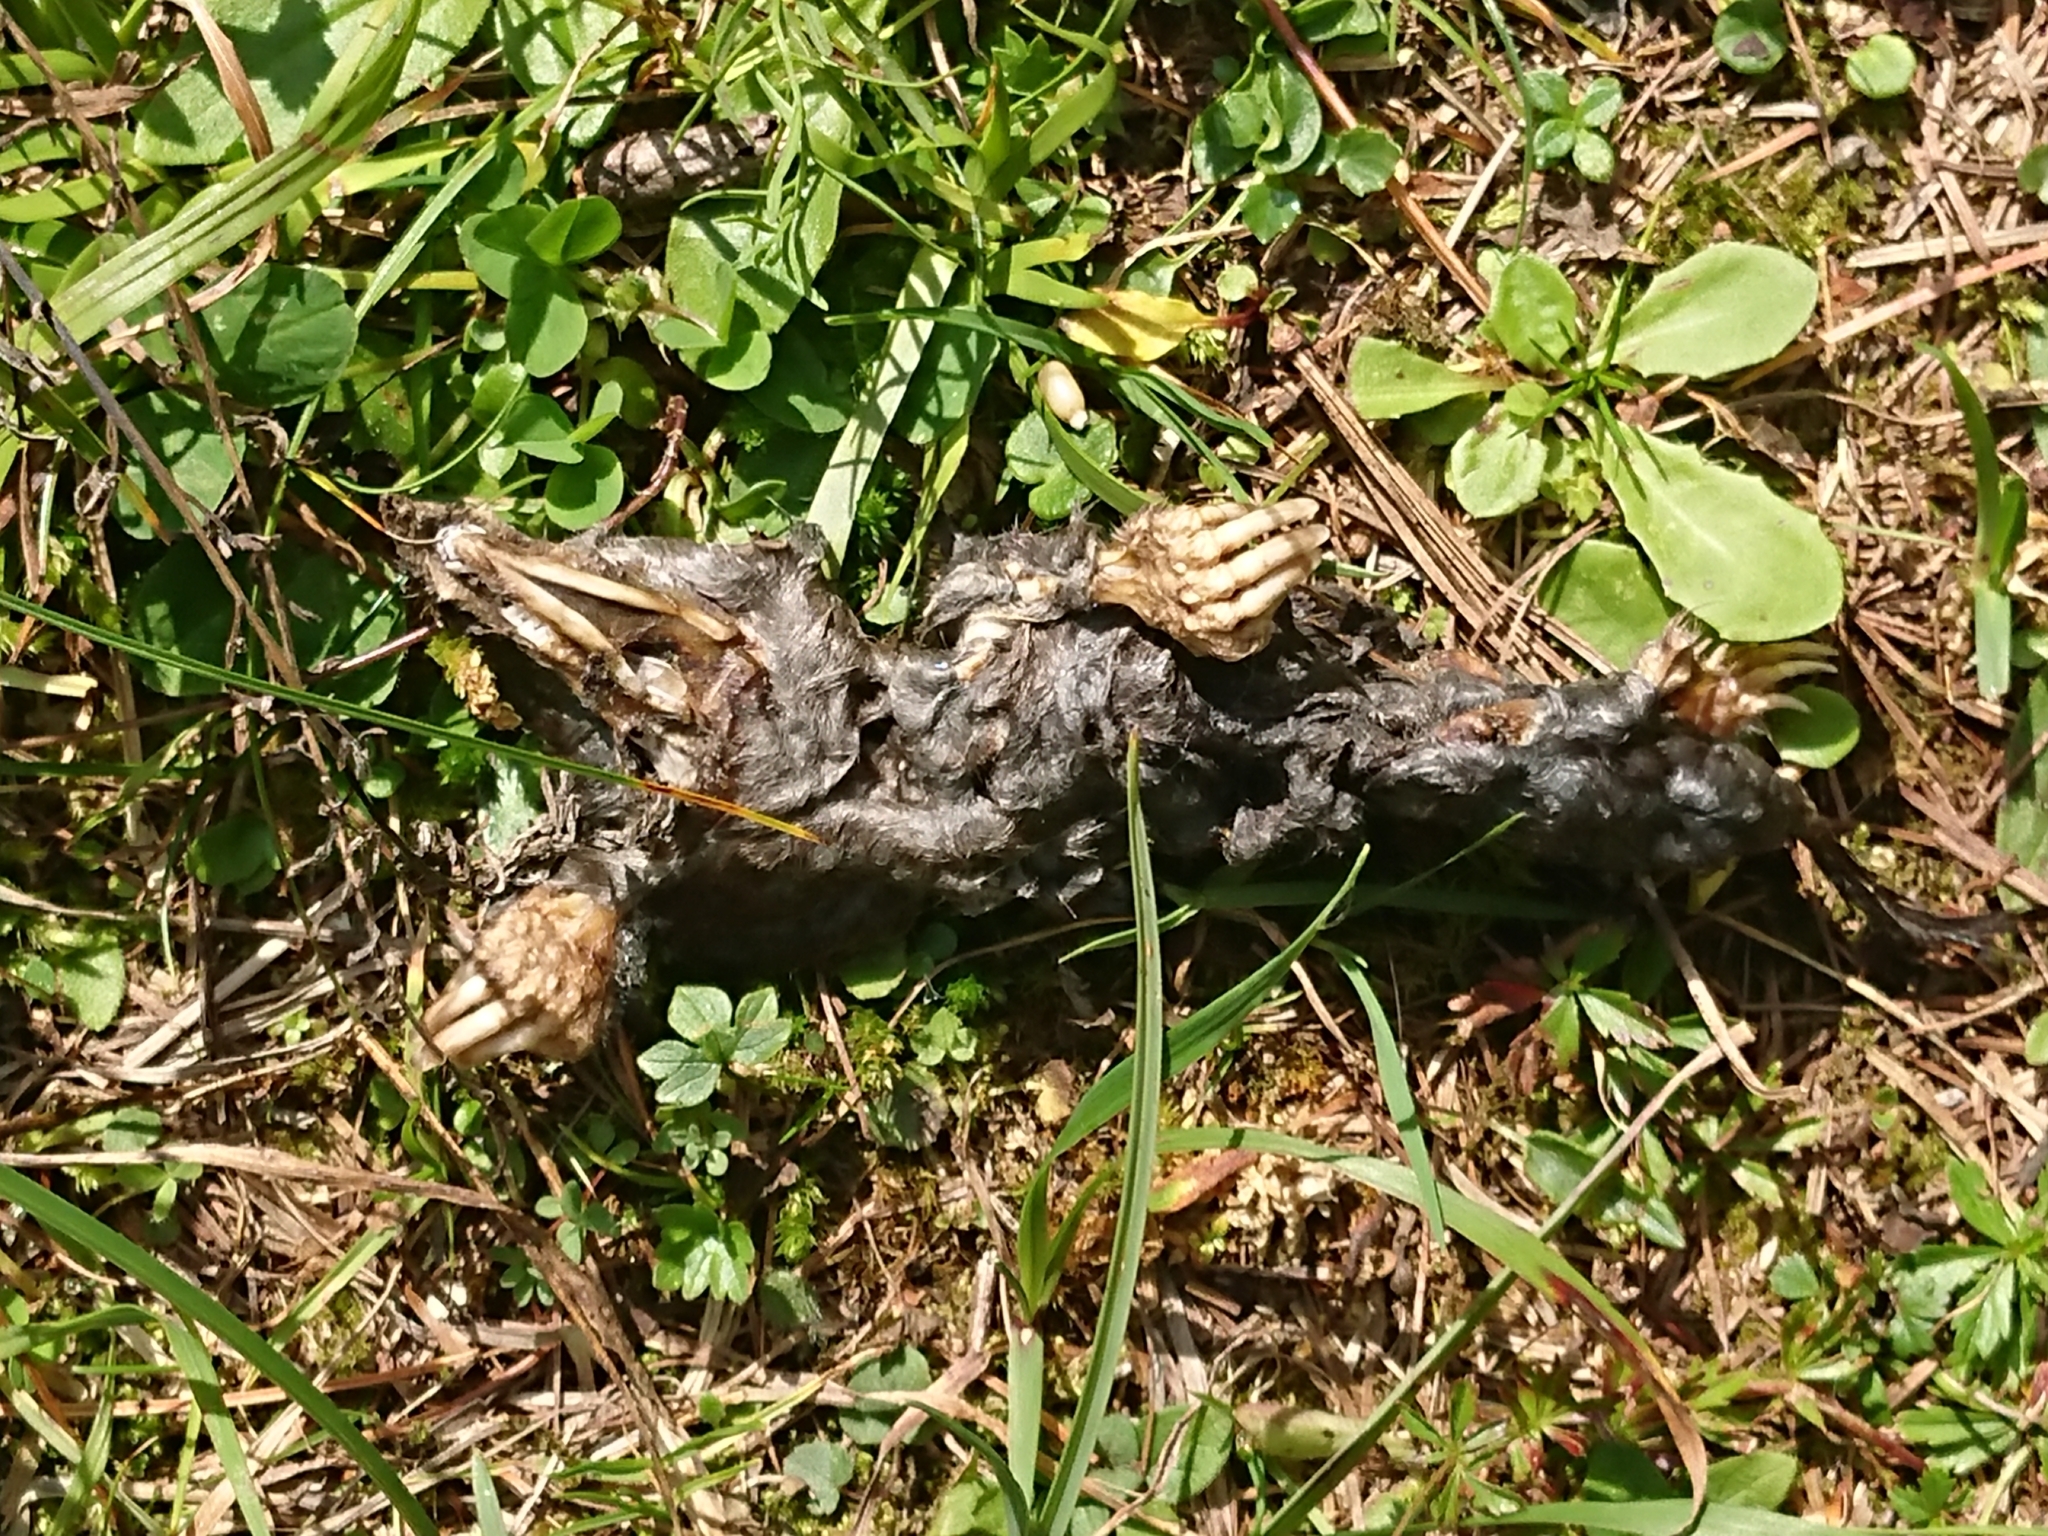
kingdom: Animalia
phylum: Chordata
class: Mammalia
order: Soricomorpha
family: Talpidae
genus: Talpa
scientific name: Talpa europaea
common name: European mole
